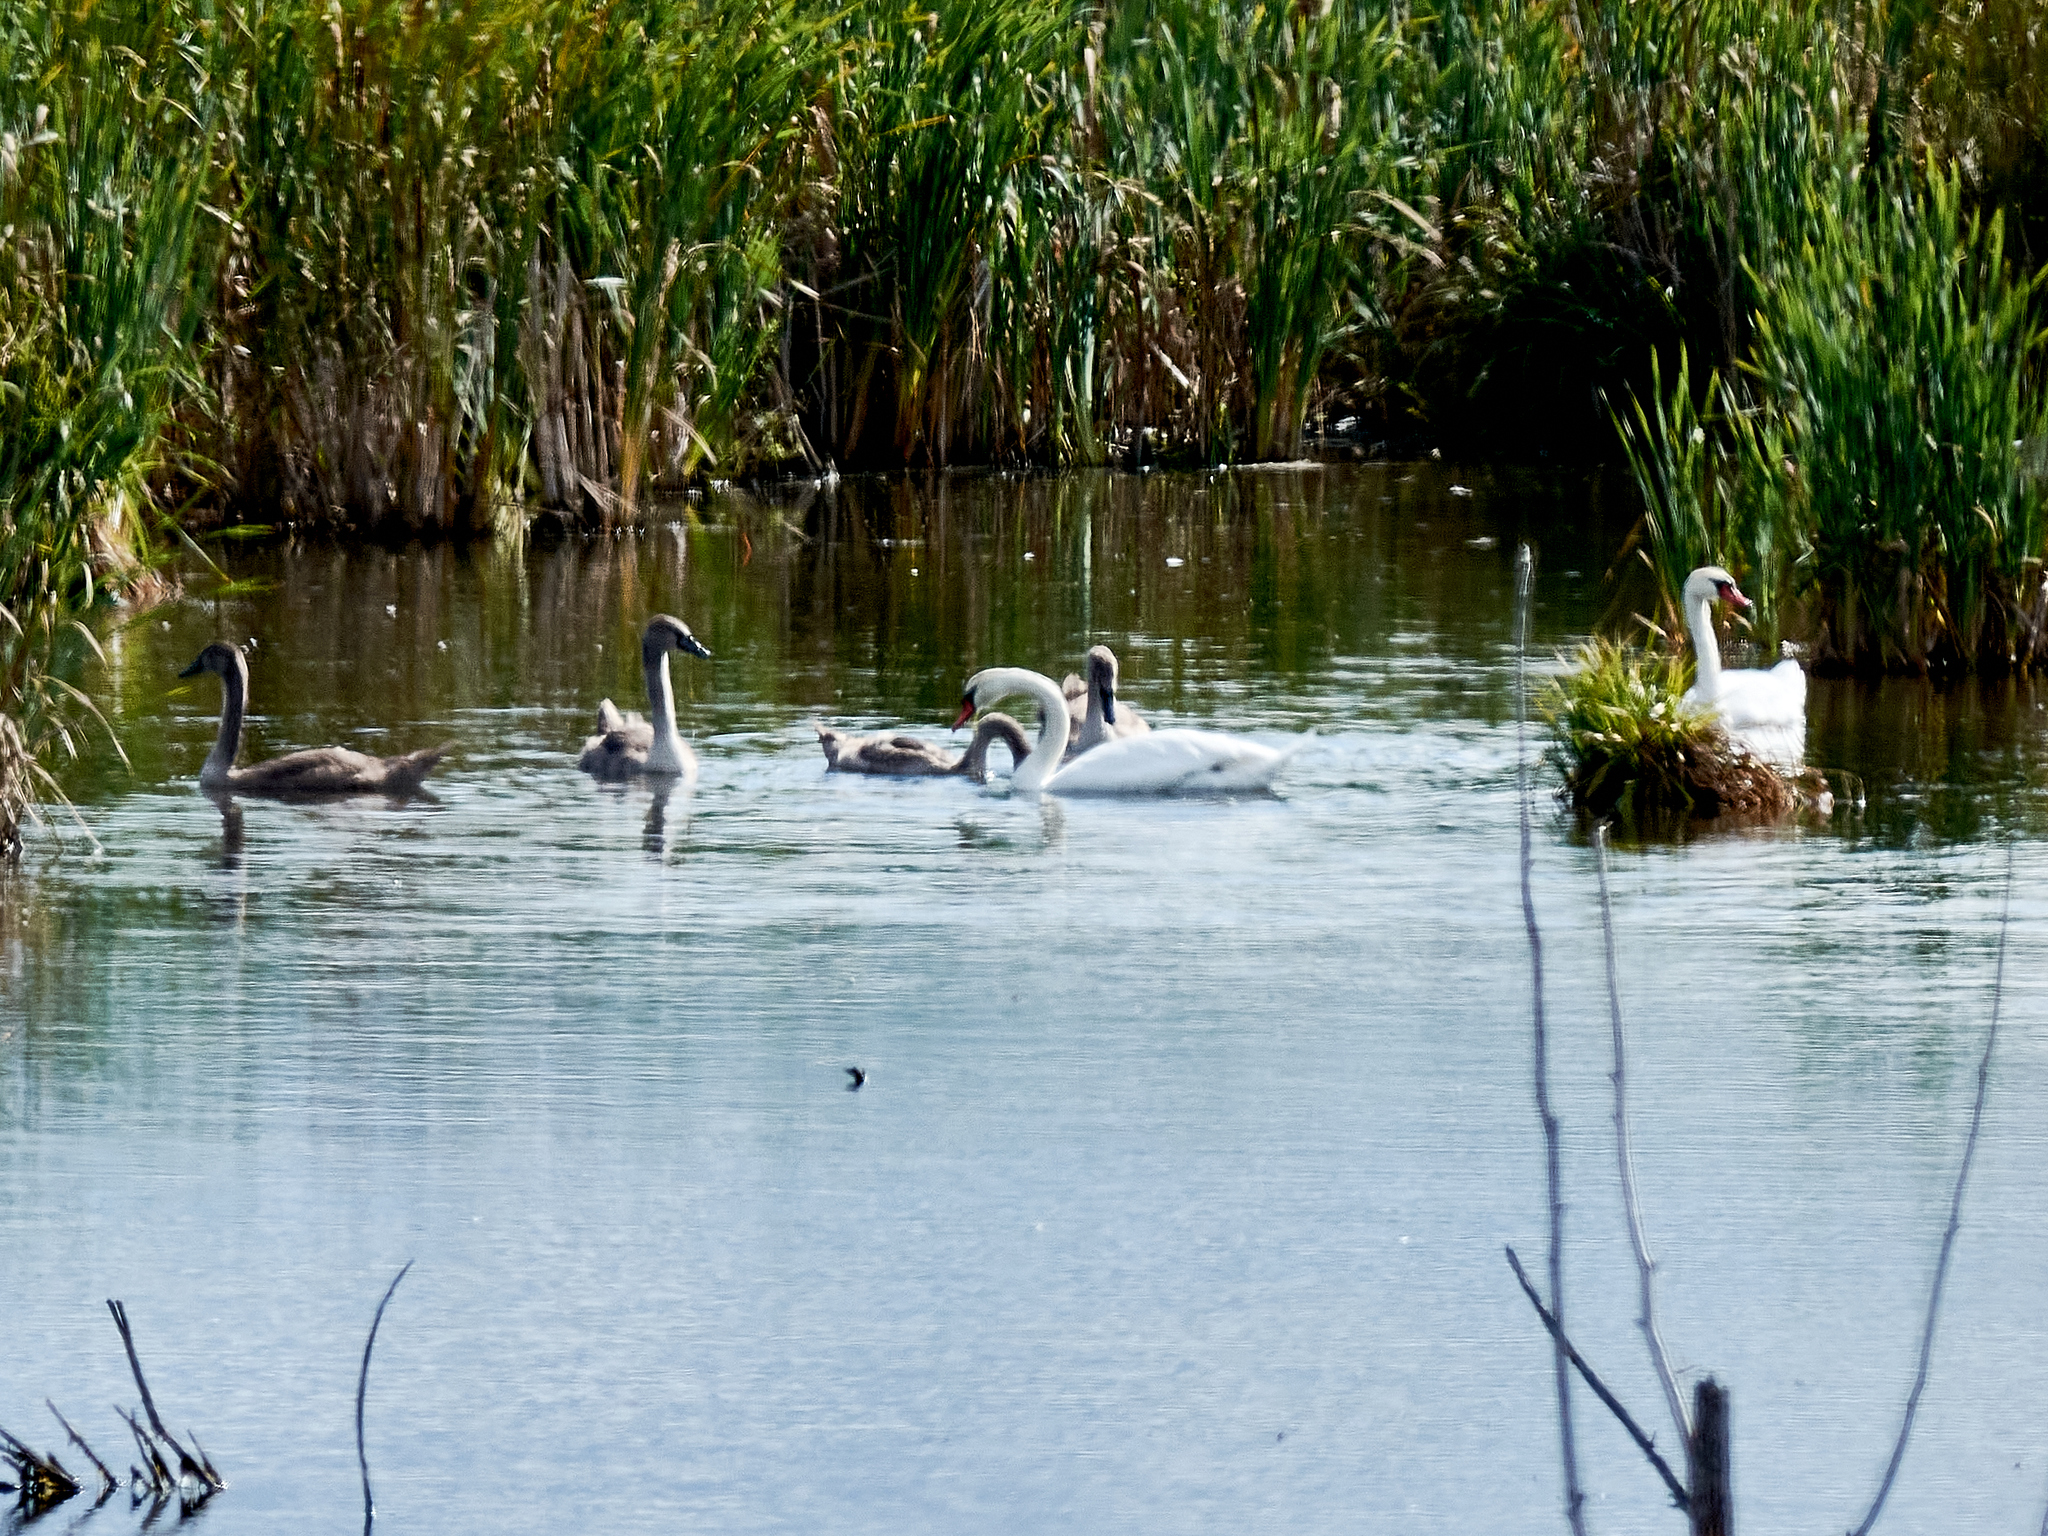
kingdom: Animalia
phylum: Chordata
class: Aves
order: Anseriformes
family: Anatidae
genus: Cygnus
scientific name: Cygnus olor
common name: Mute swan
